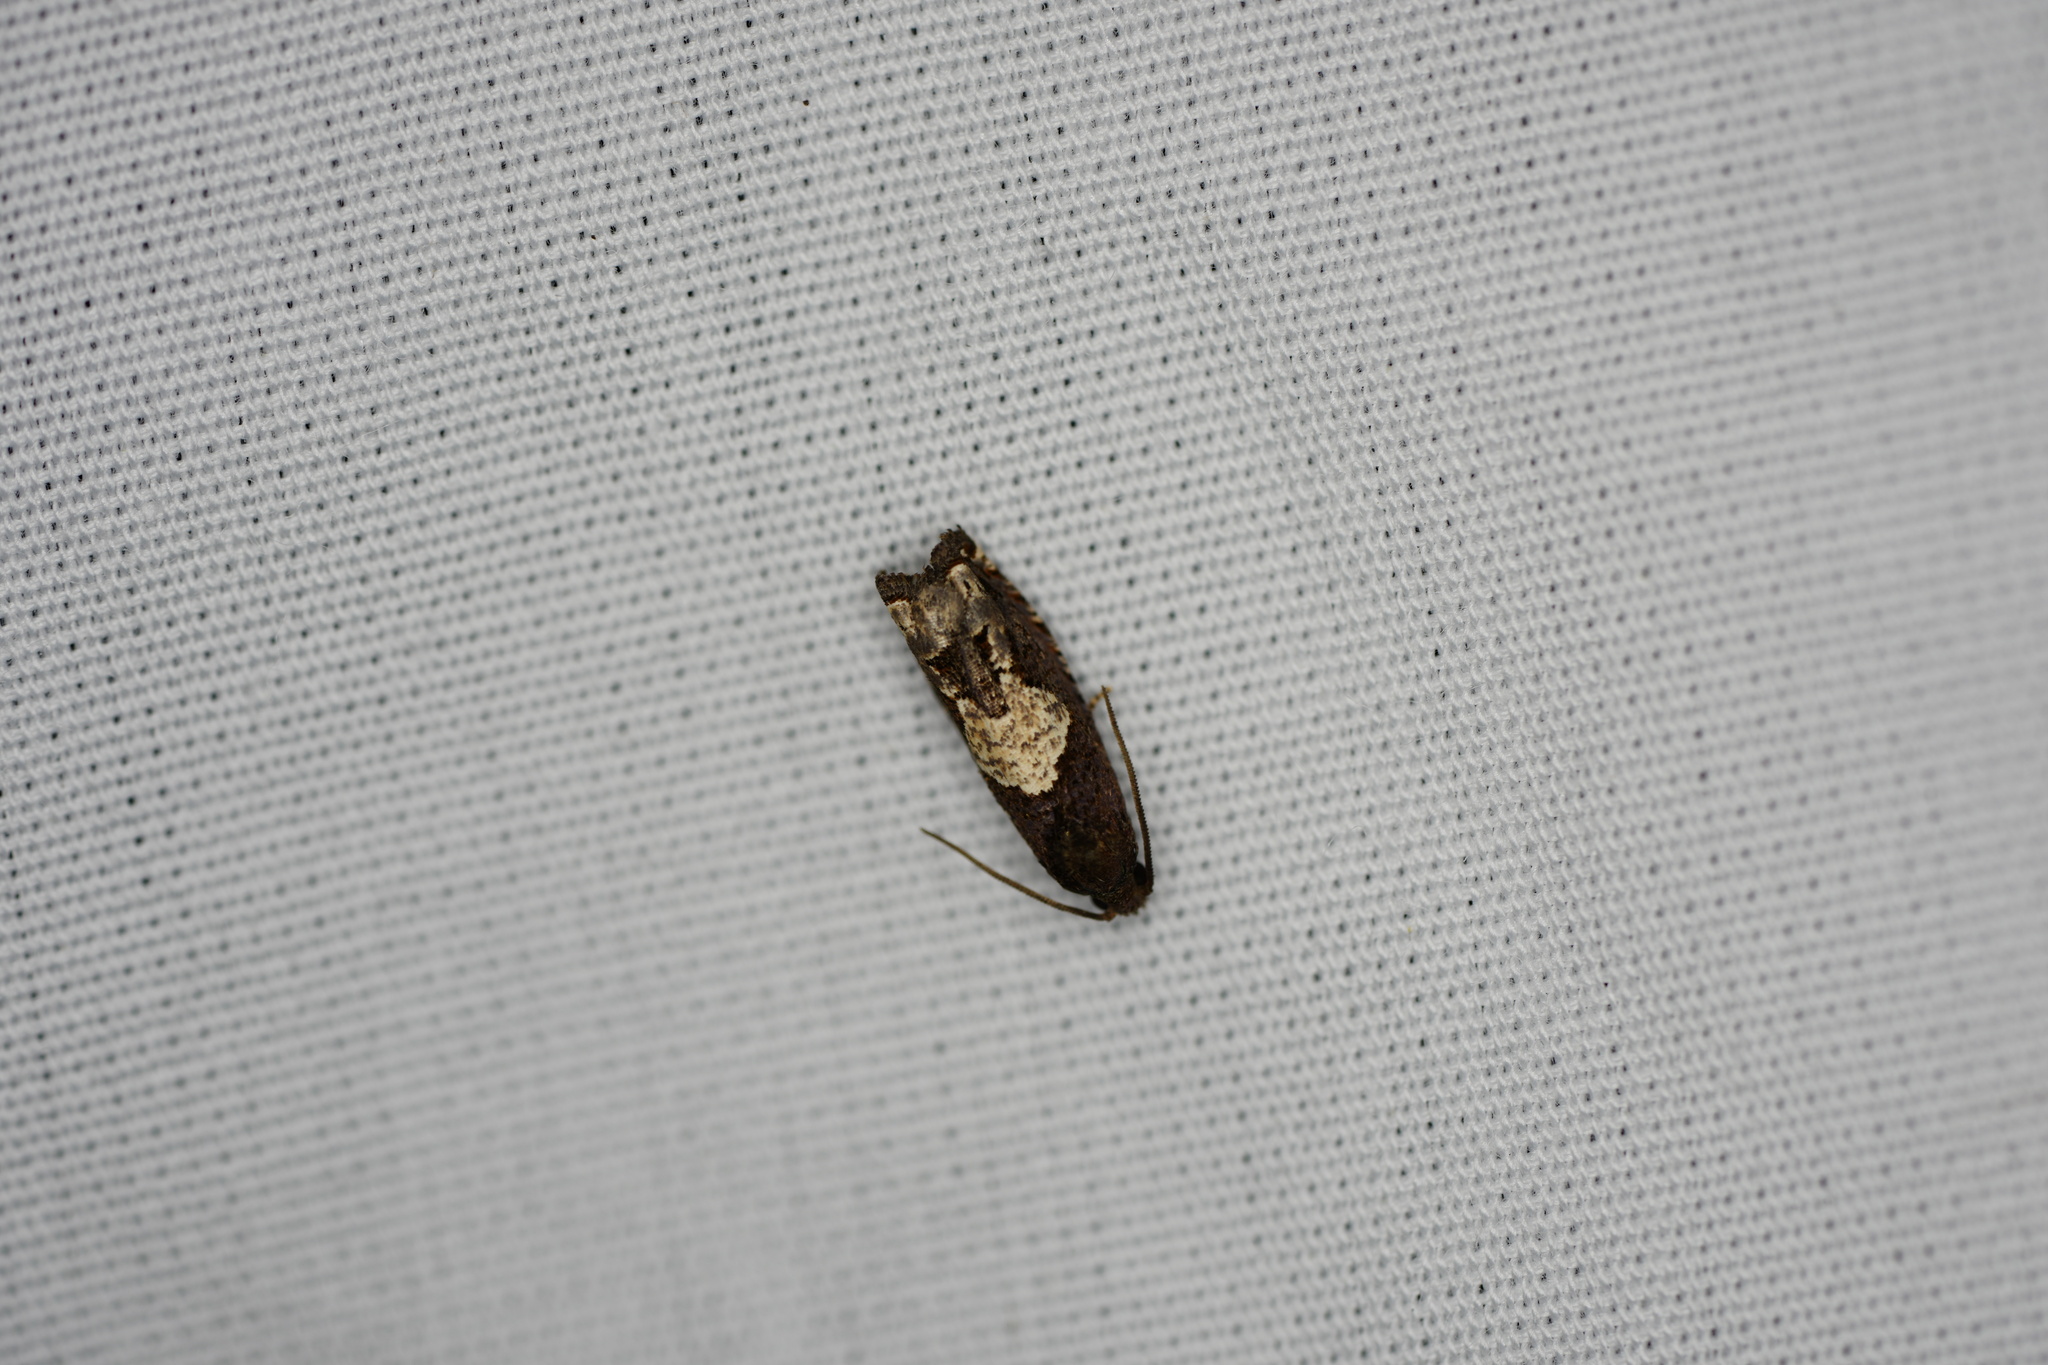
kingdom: Animalia
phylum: Arthropoda
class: Insecta
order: Lepidoptera
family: Tortricidae
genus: Epiblema
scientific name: Epiblema otiosana
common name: Bidens borer moth
